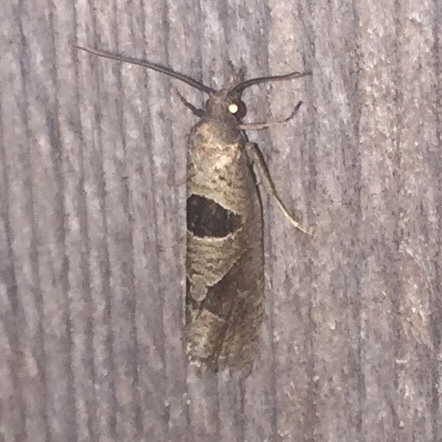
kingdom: Animalia
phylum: Arthropoda
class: Insecta
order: Lepidoptera
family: Tortricidae
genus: Pelochrista
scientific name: Pelochrista dorsisignatana
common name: Triangle-backed pelochrista moth
